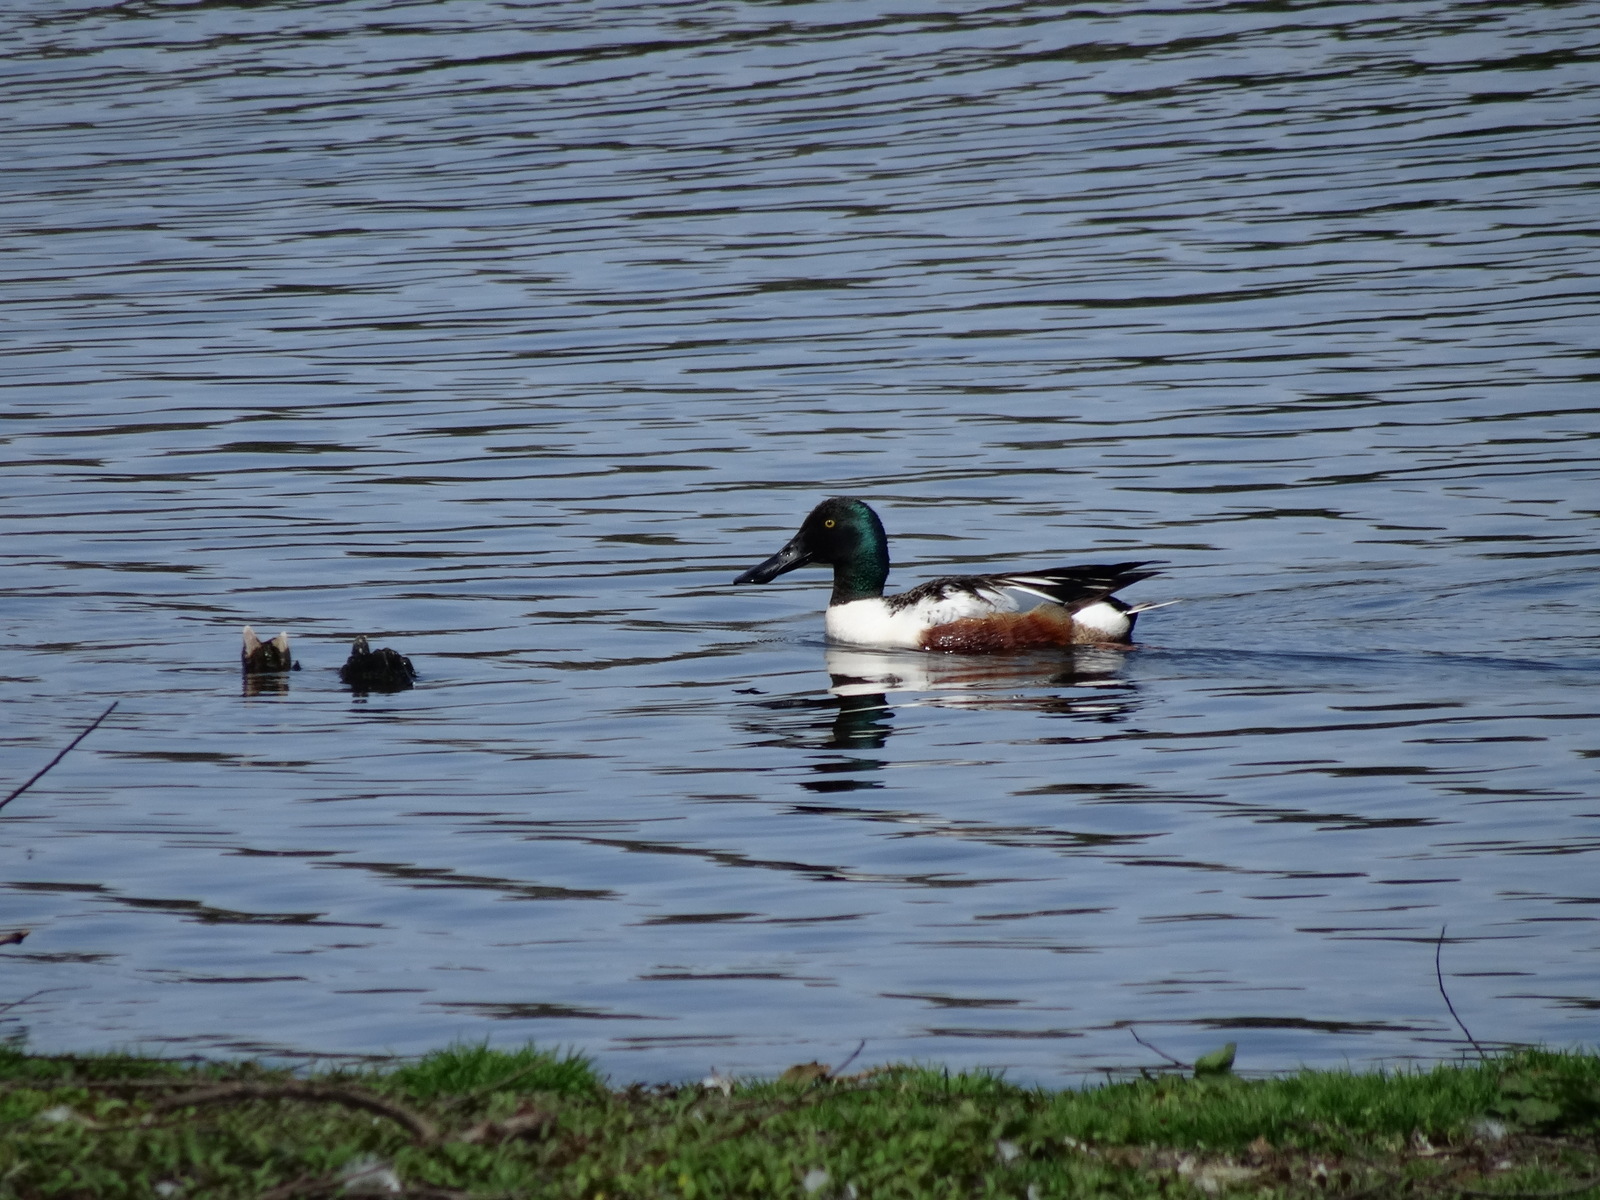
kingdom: Animalia
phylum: Chordata
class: Aves
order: Anseriformes
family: Anatidae
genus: Spatula
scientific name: Spatula clypeata
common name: Northern shoveler
